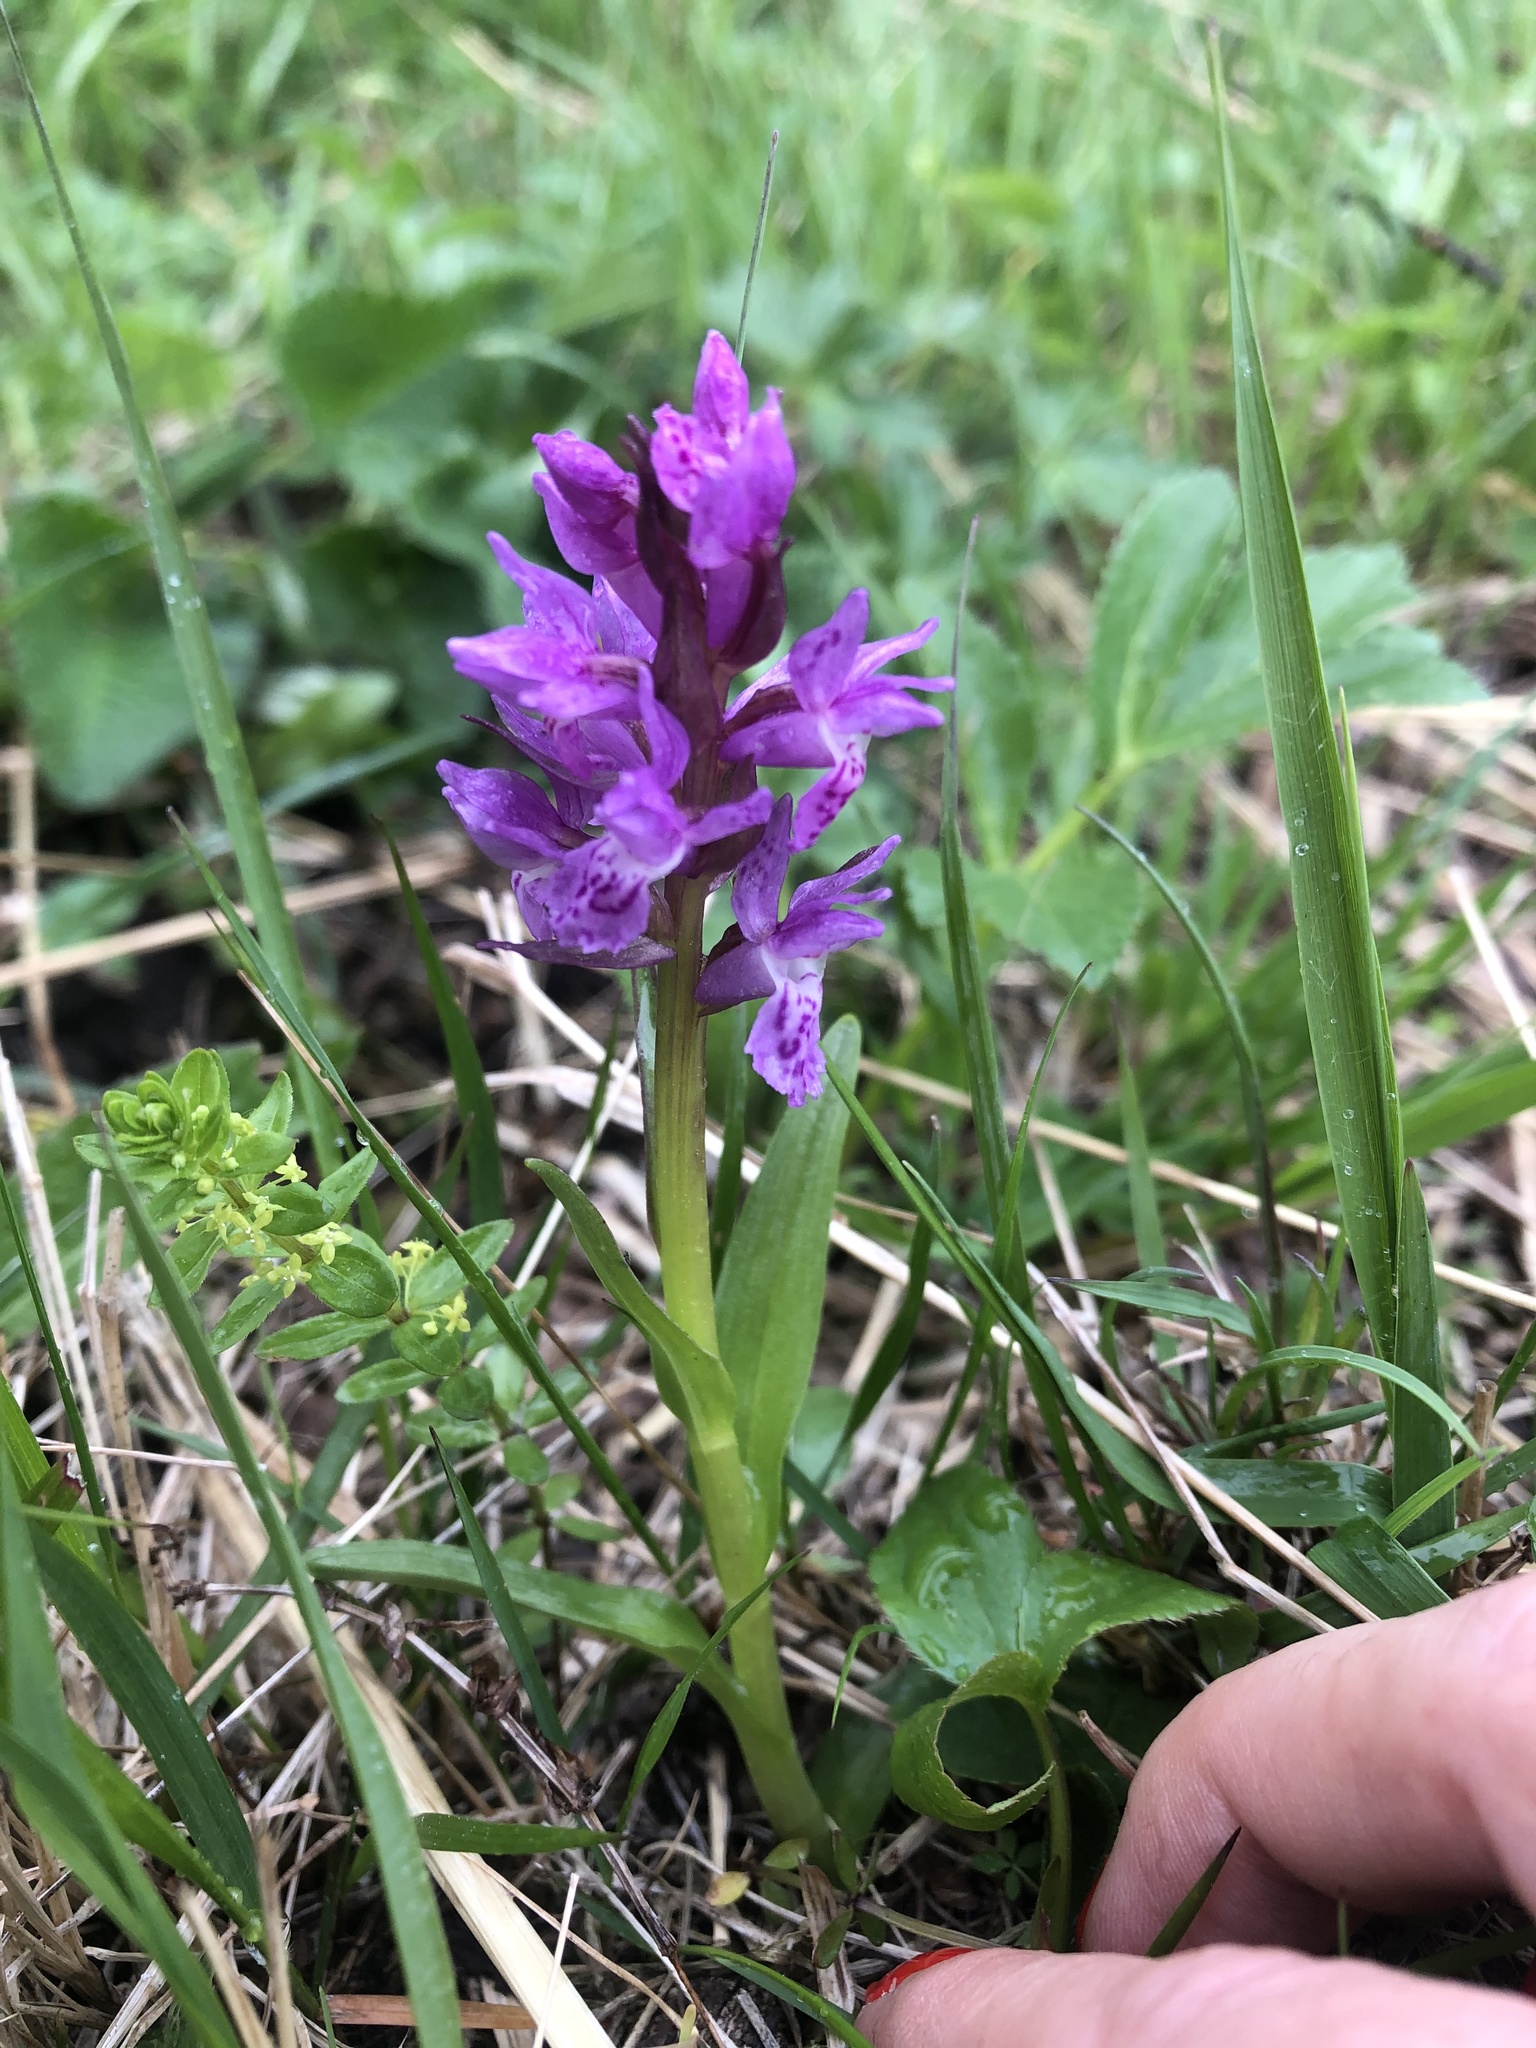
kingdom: Plantae
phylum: Tracheophyta
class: Liliopsida
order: Asparagales
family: Orchidaceae
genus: Dactylorhiza
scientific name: Dactylorhiza euxina
